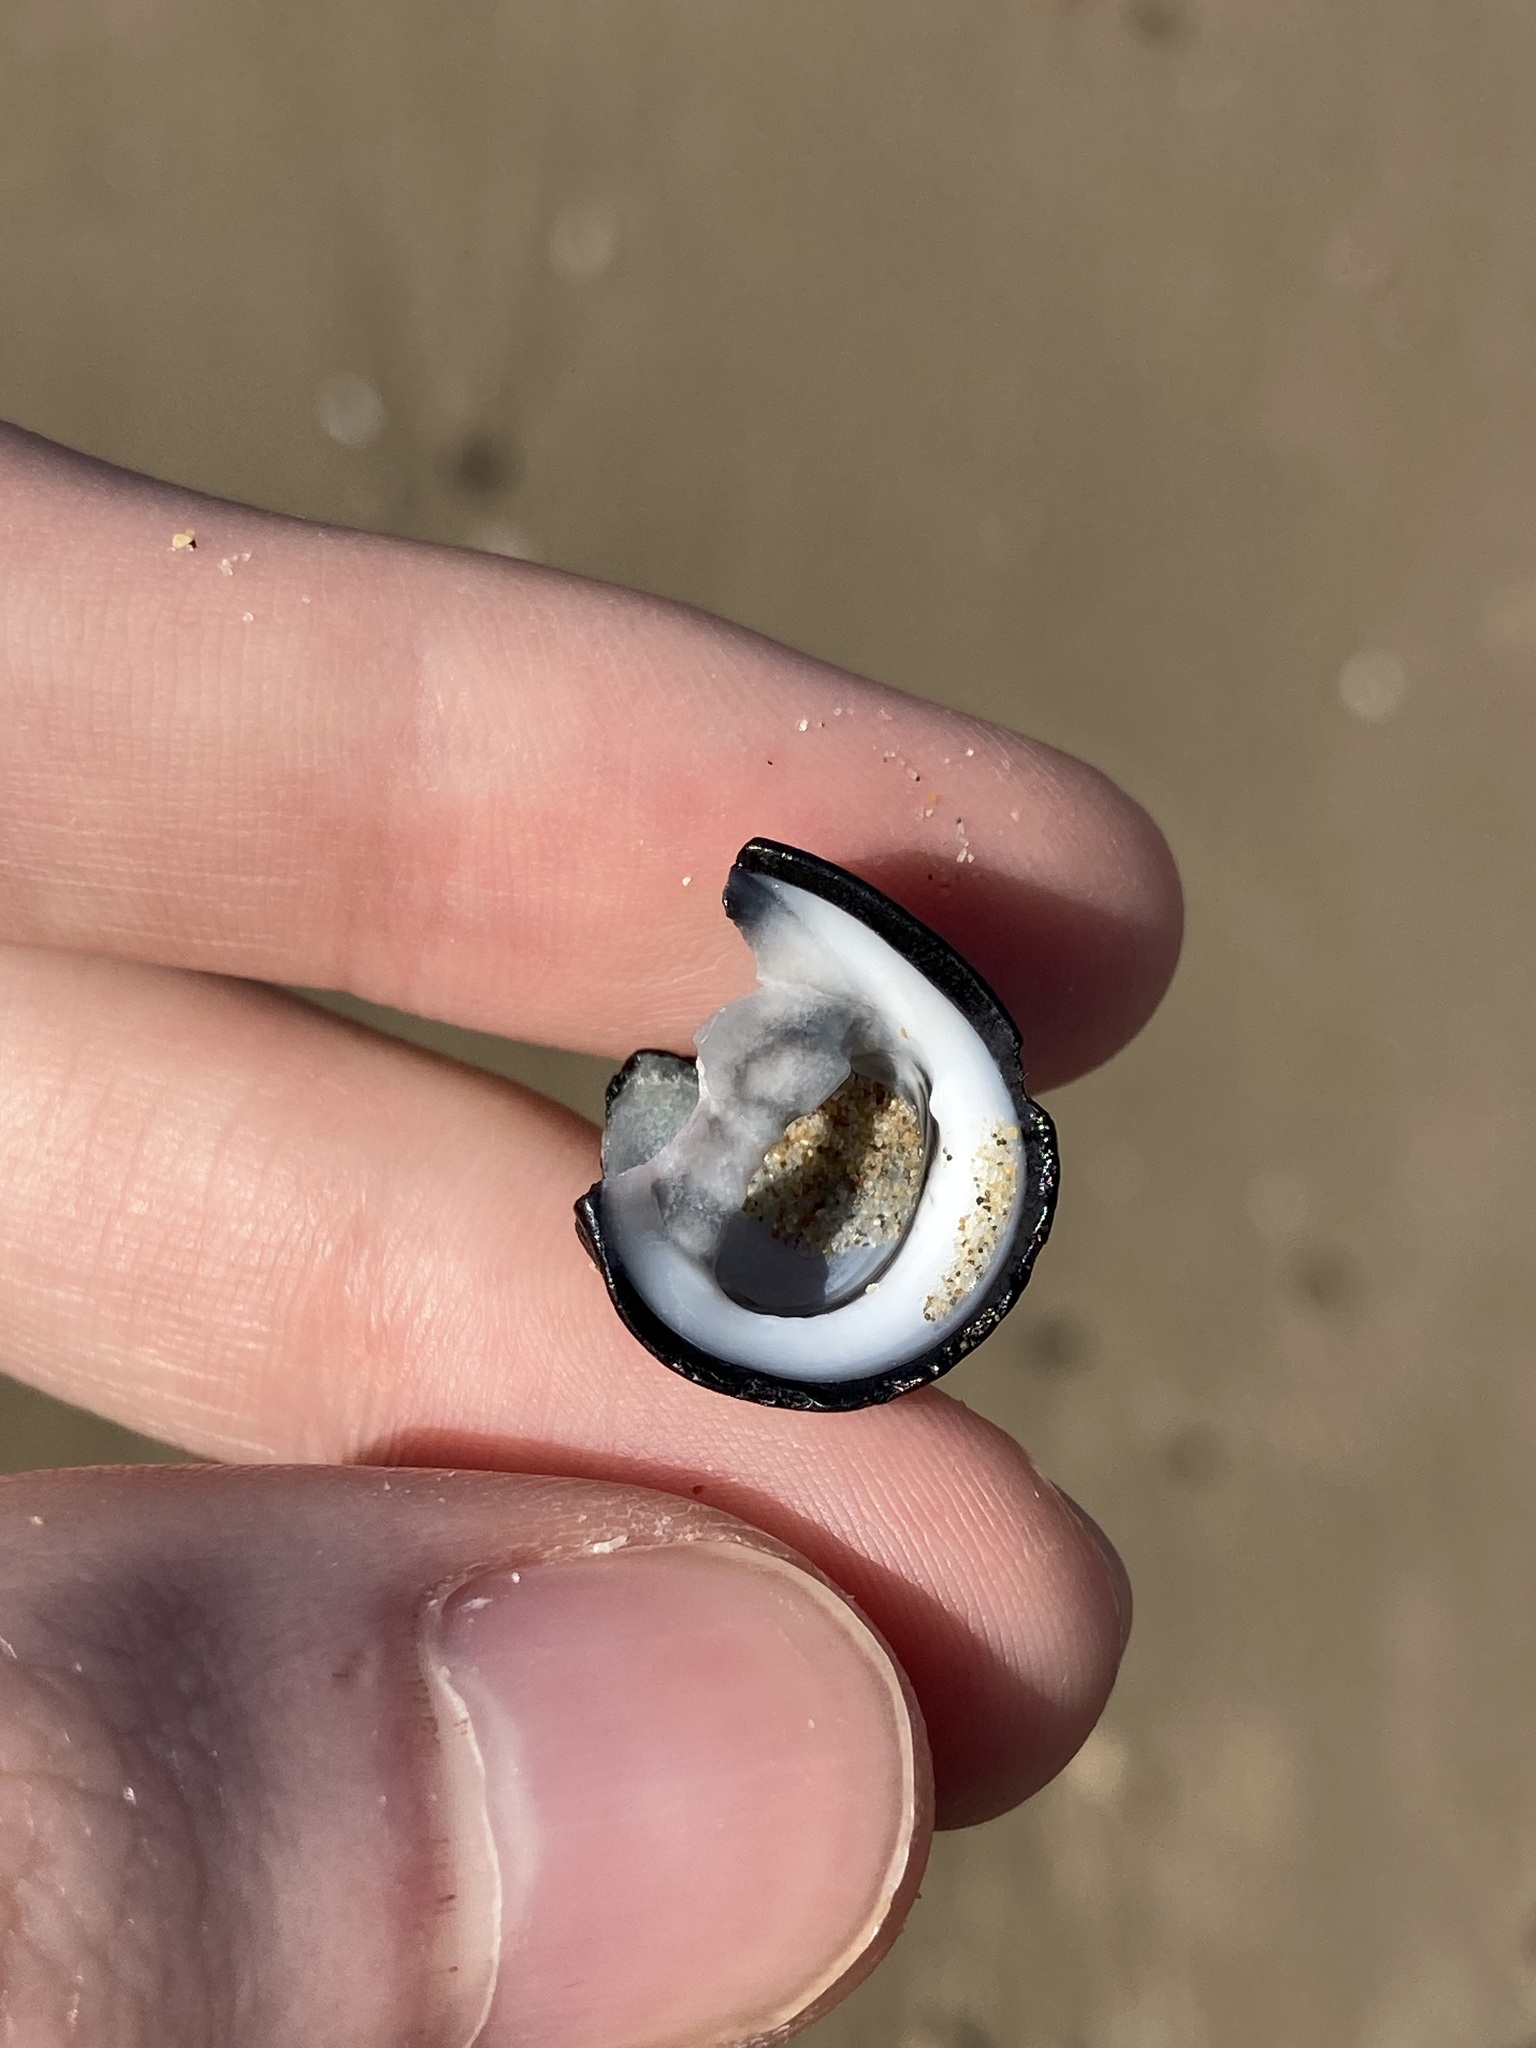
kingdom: Animalia
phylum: Mollusca
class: Gastropoda
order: Cycloneritida
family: Neritidae
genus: Nerita
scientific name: Nerita melanotragus
